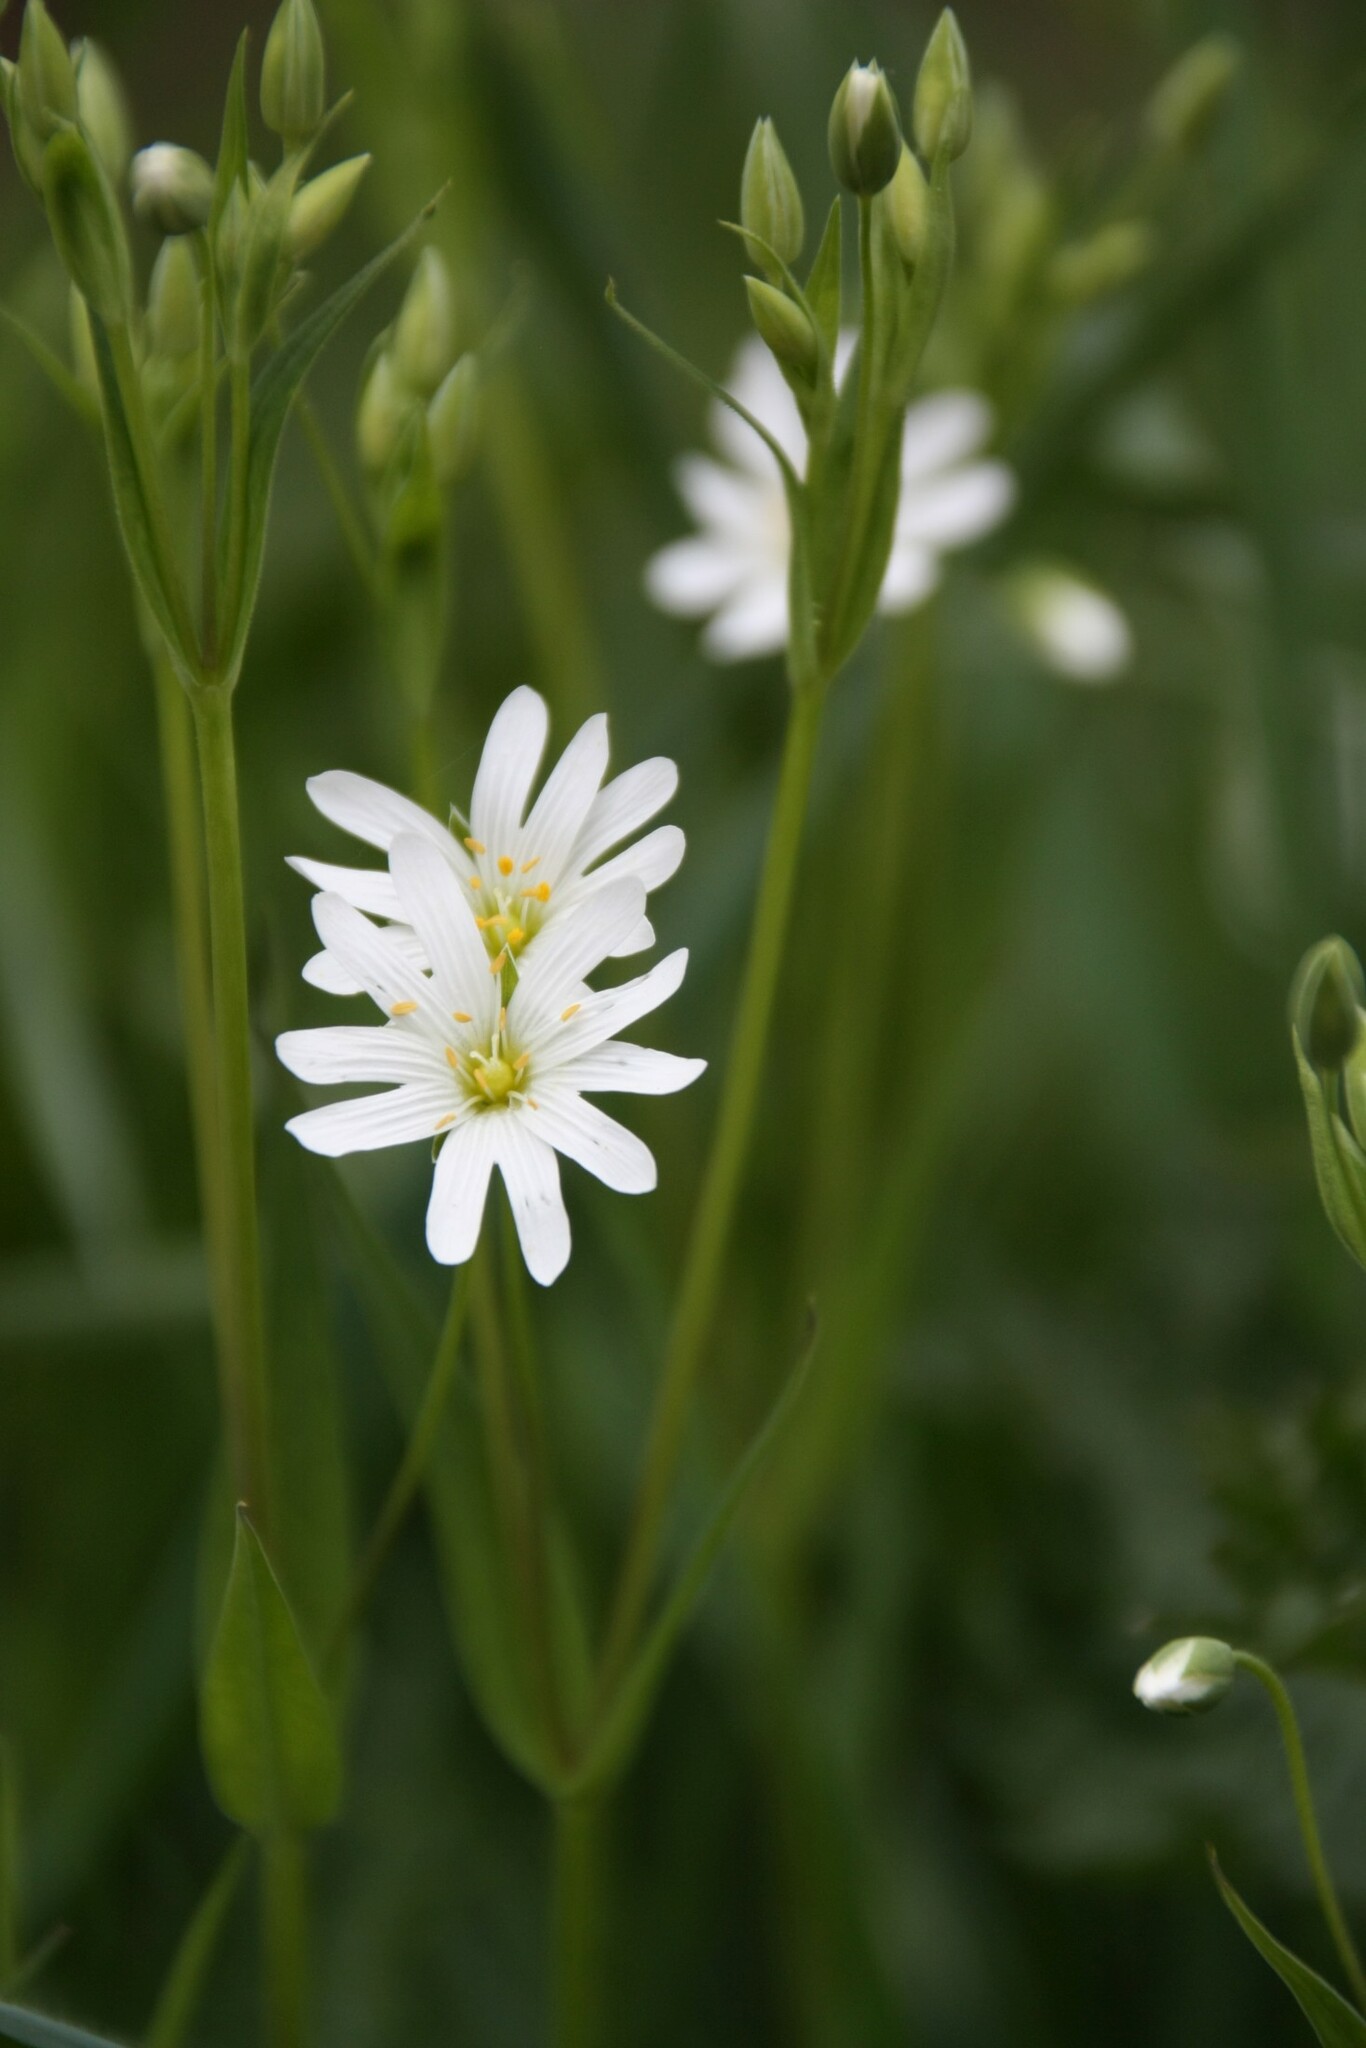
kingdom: Plantae
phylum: Tracheophyta
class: Magnoliopsida
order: Caryophyllales
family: Caryophyllaceae
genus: Rabelera
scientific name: Rabelera holostea
